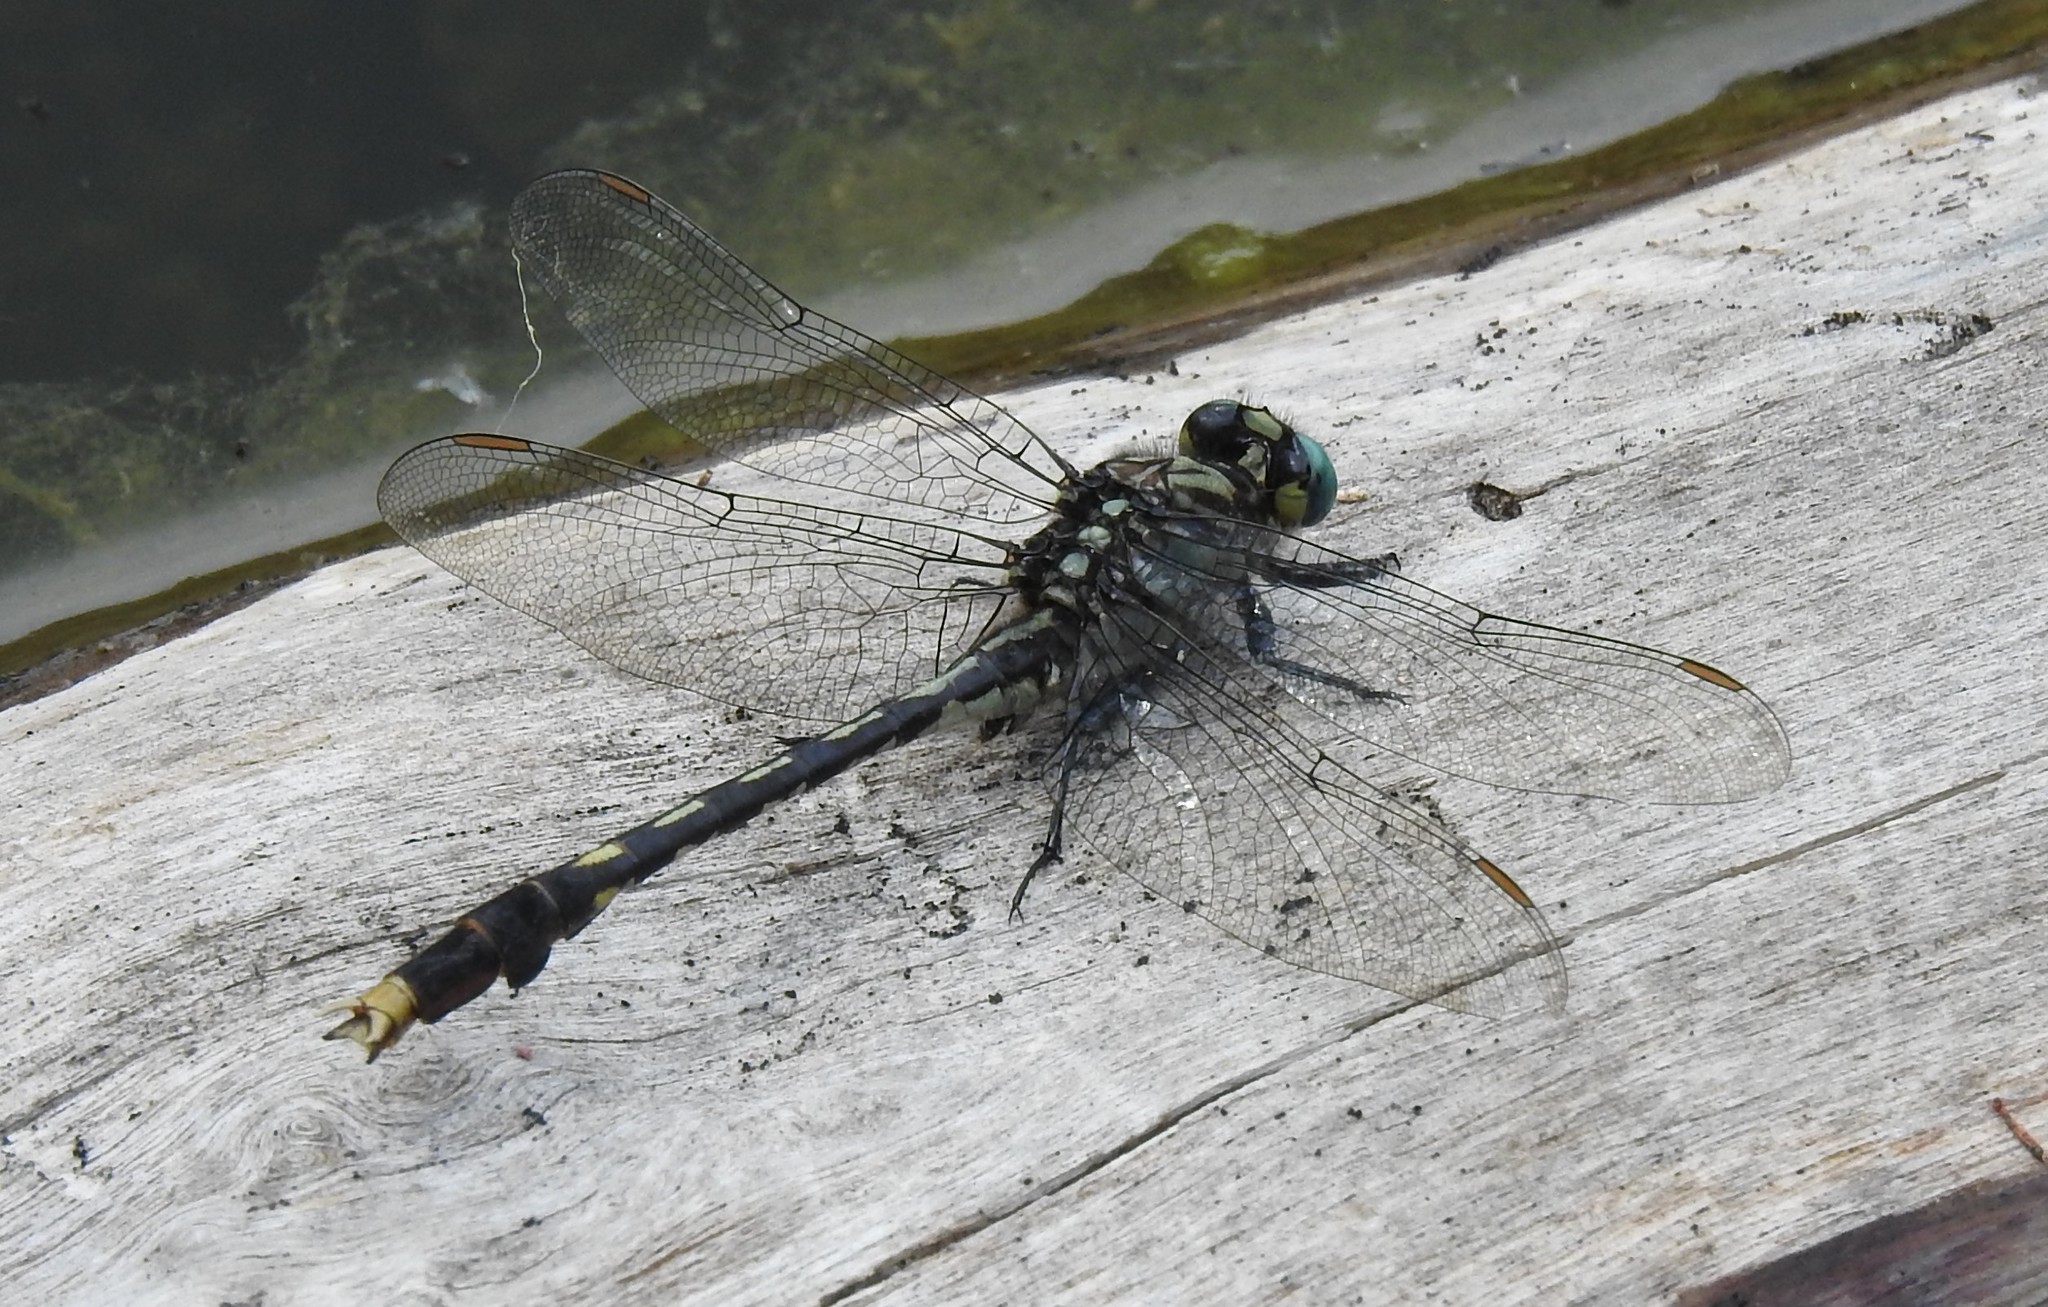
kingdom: Animalia
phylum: Arthropoda
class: Insecta
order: Odonata
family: Gomphidae
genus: Arigomphus
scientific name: Arigomphus villosipes
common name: Unicorn clubtail
